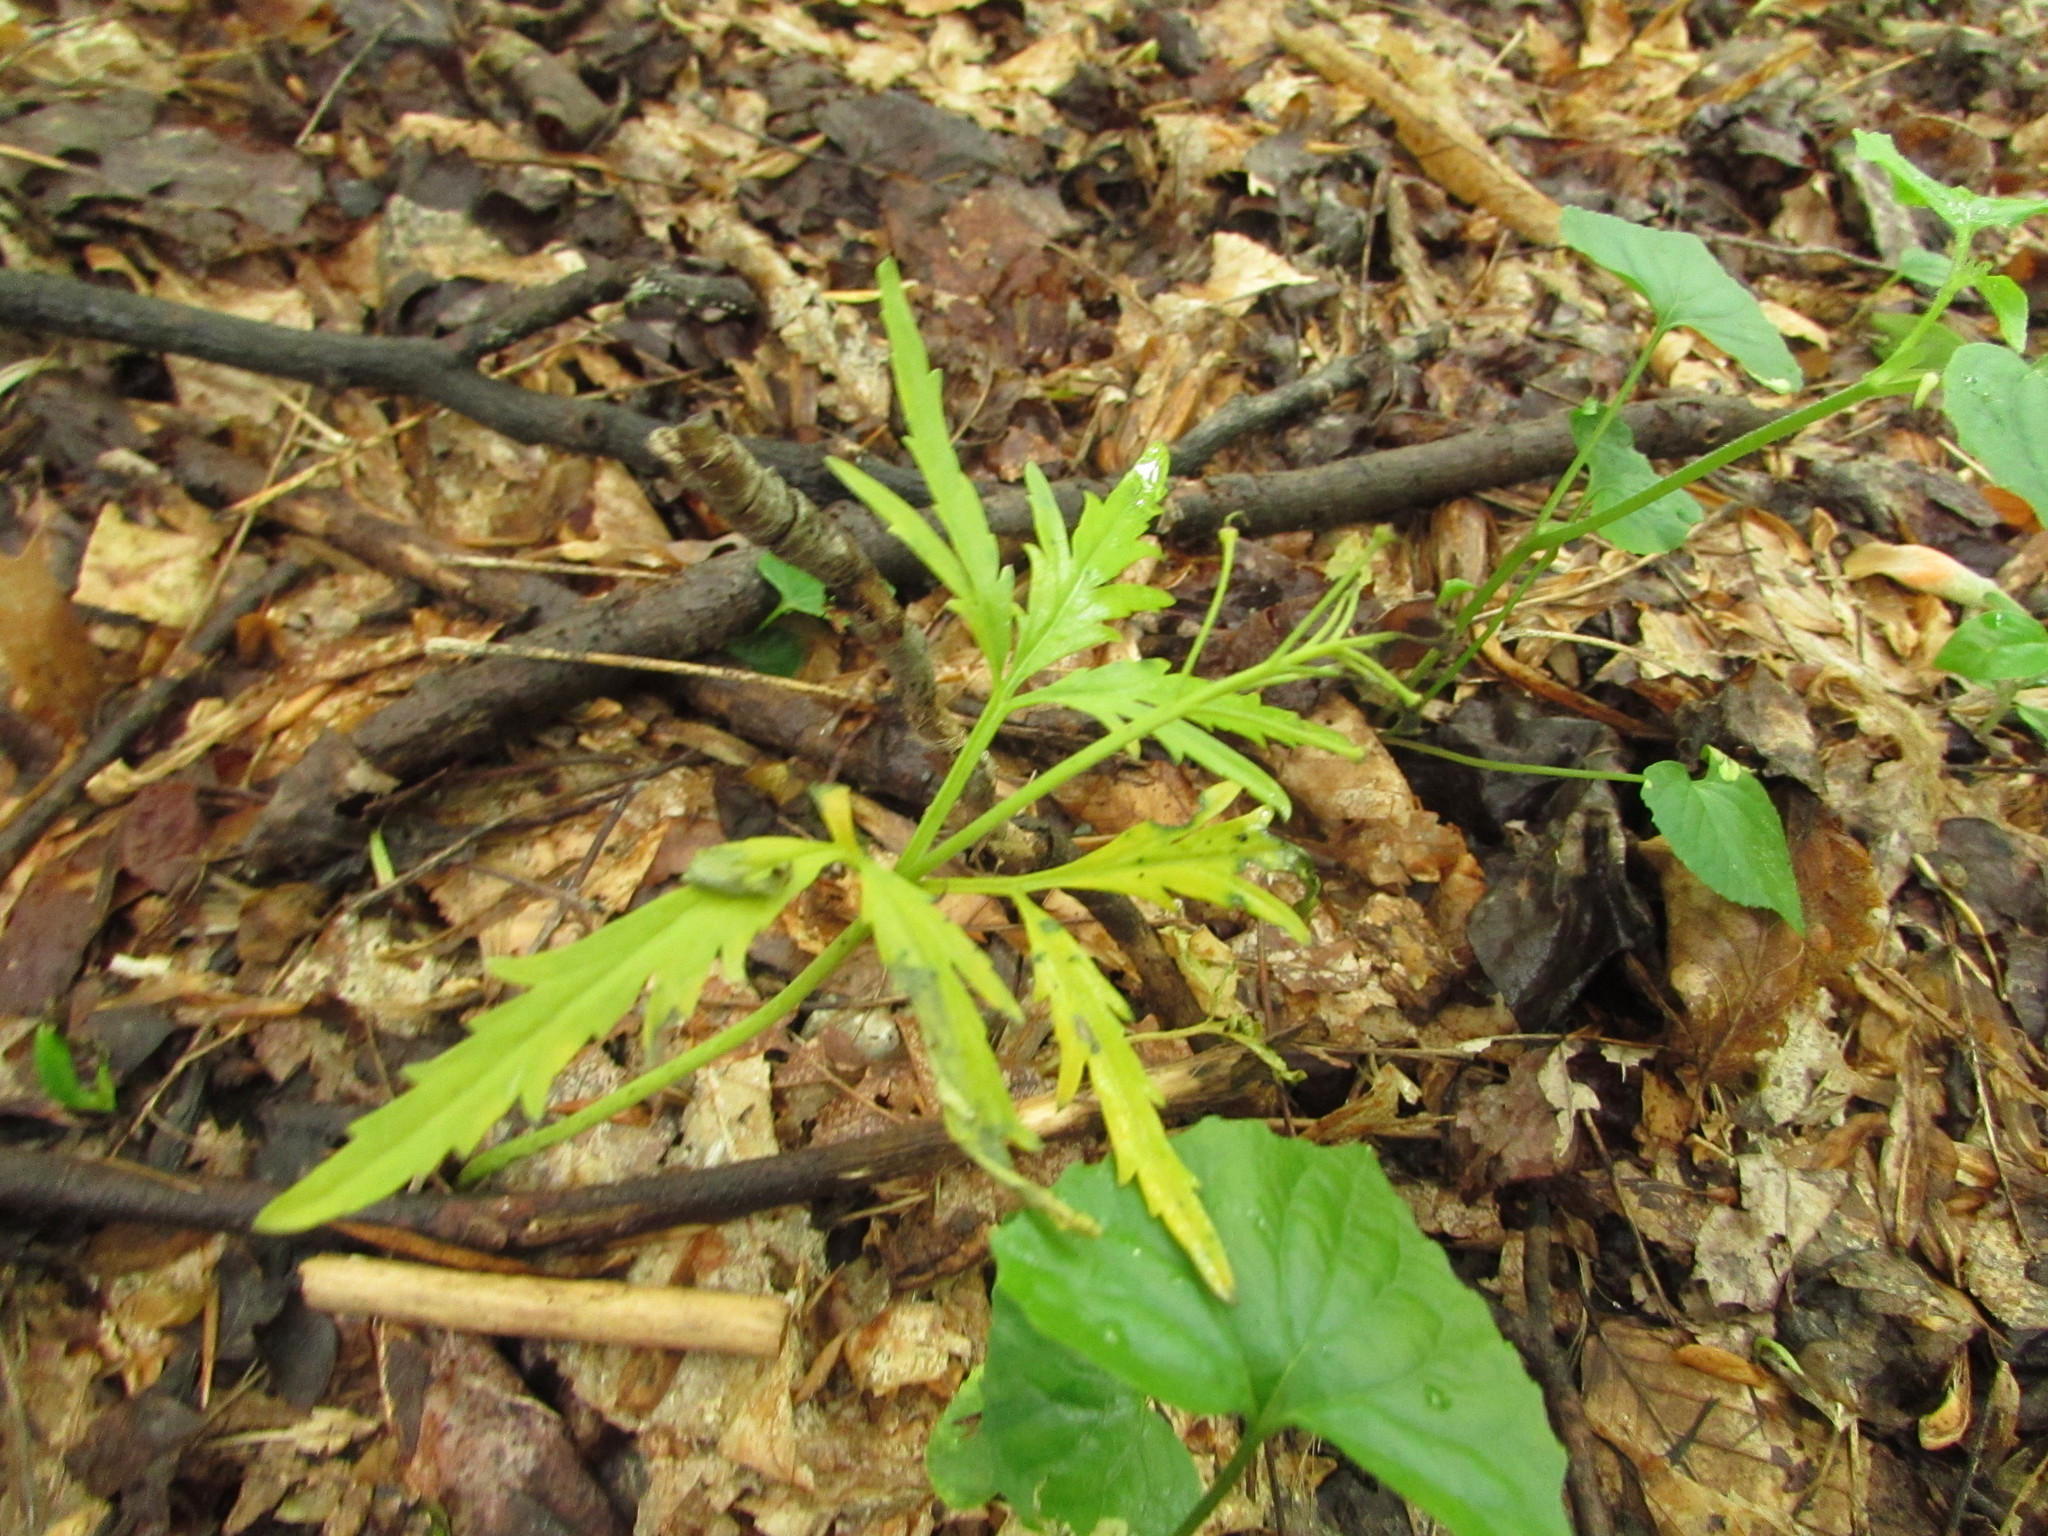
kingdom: Plantae
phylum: Tracheophyta
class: Magnoliopsida
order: Brassicales
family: Brassicaceae
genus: Cardamine
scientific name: Cardamine concatenata
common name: Cut-leaf toothcup
